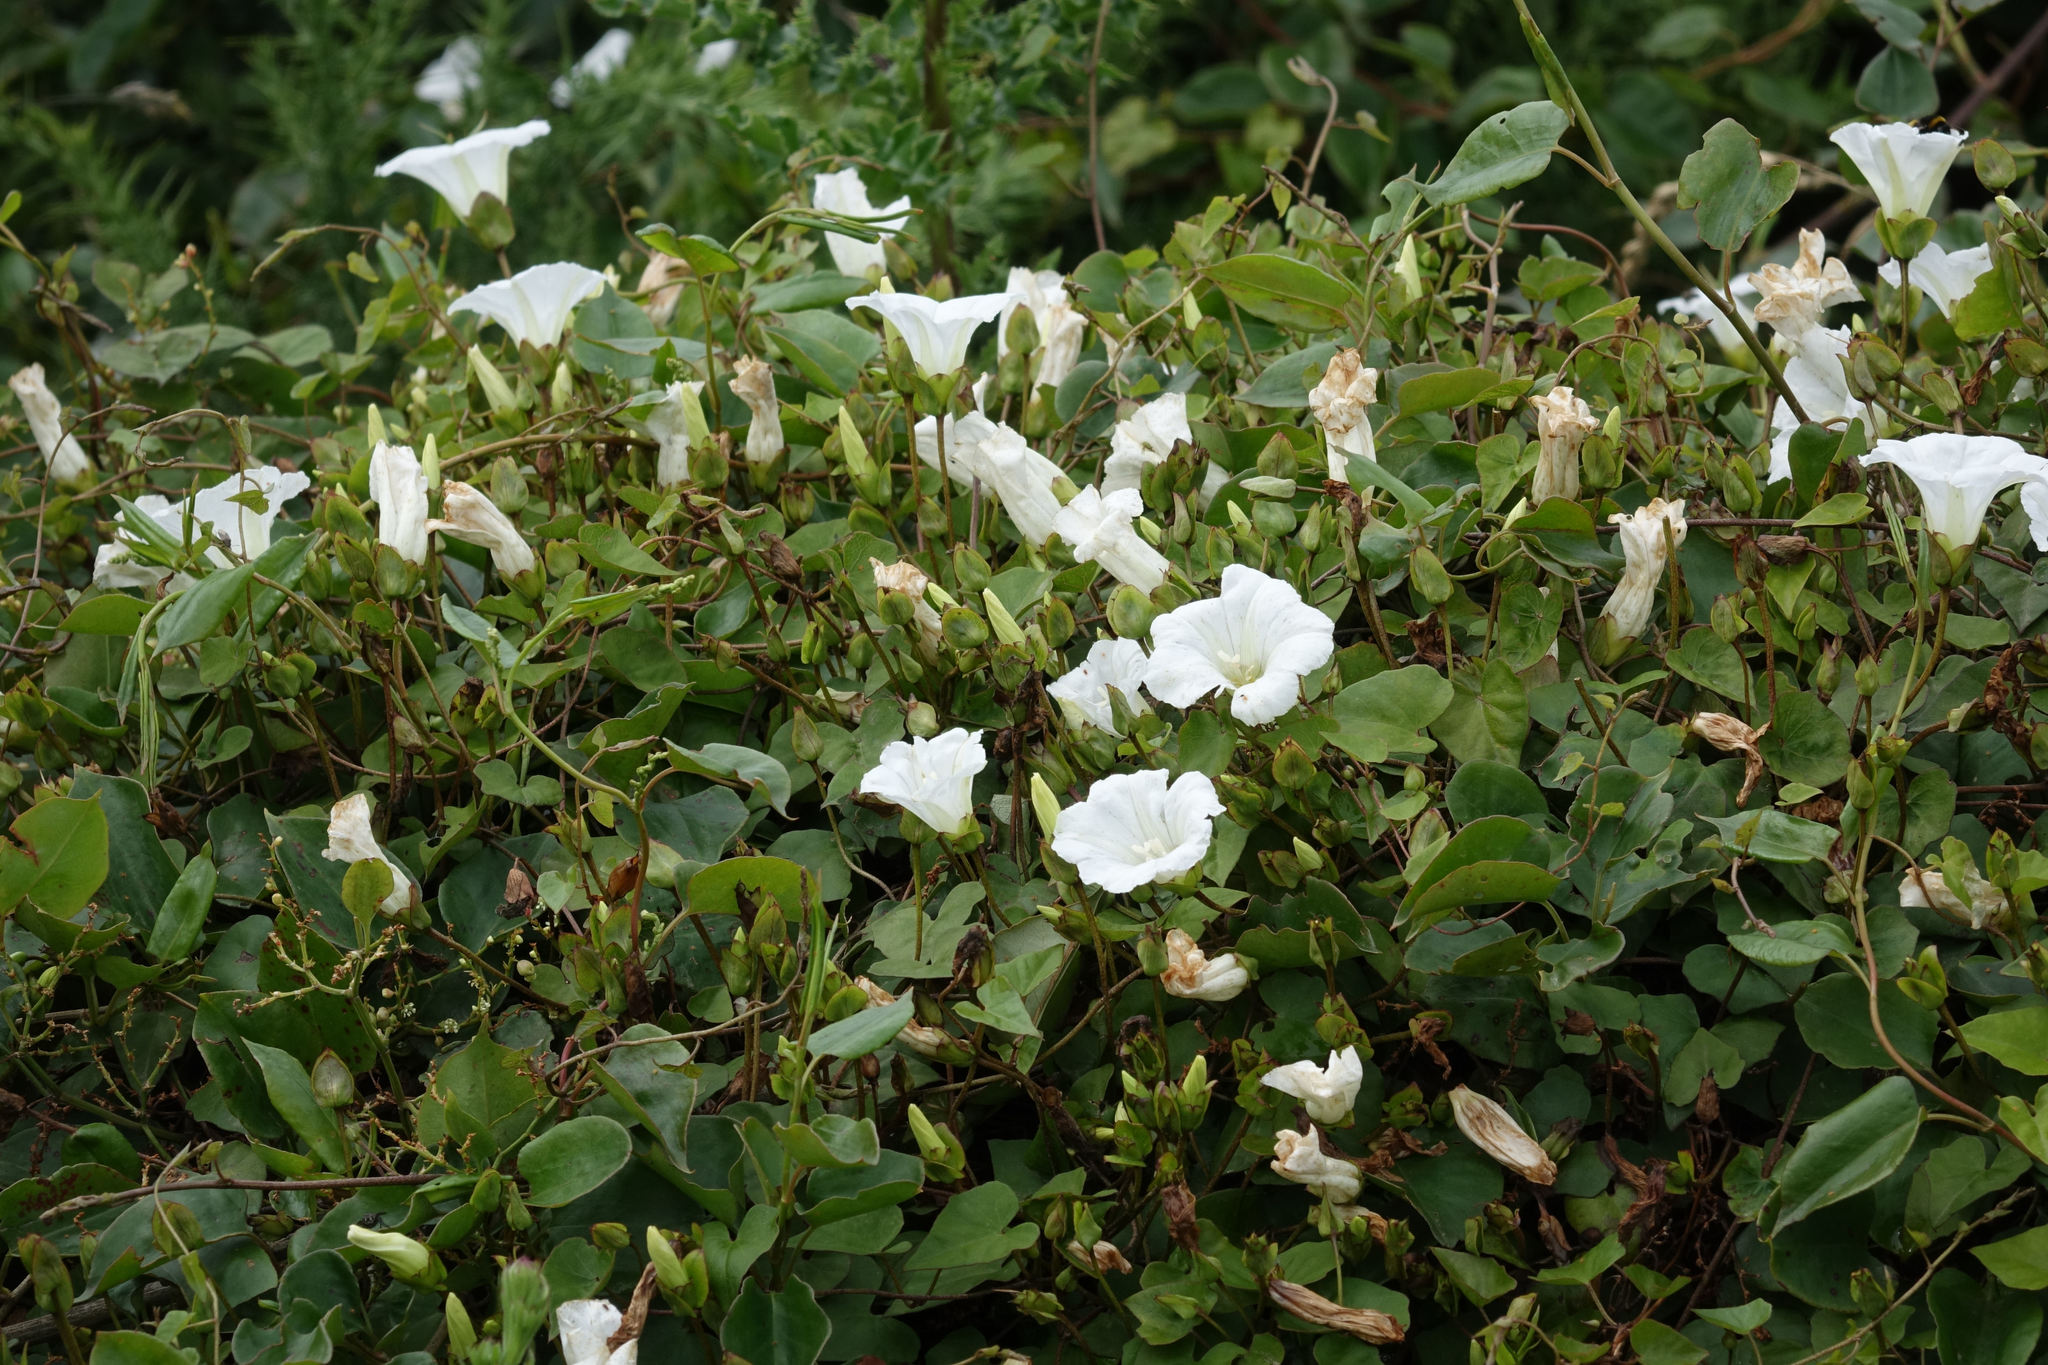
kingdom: Plantae
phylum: Tracheophyta
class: Magnoliopsida
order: Solanales
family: Convolvulaceae
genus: Calystegia
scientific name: Calystegia tuguriorum
